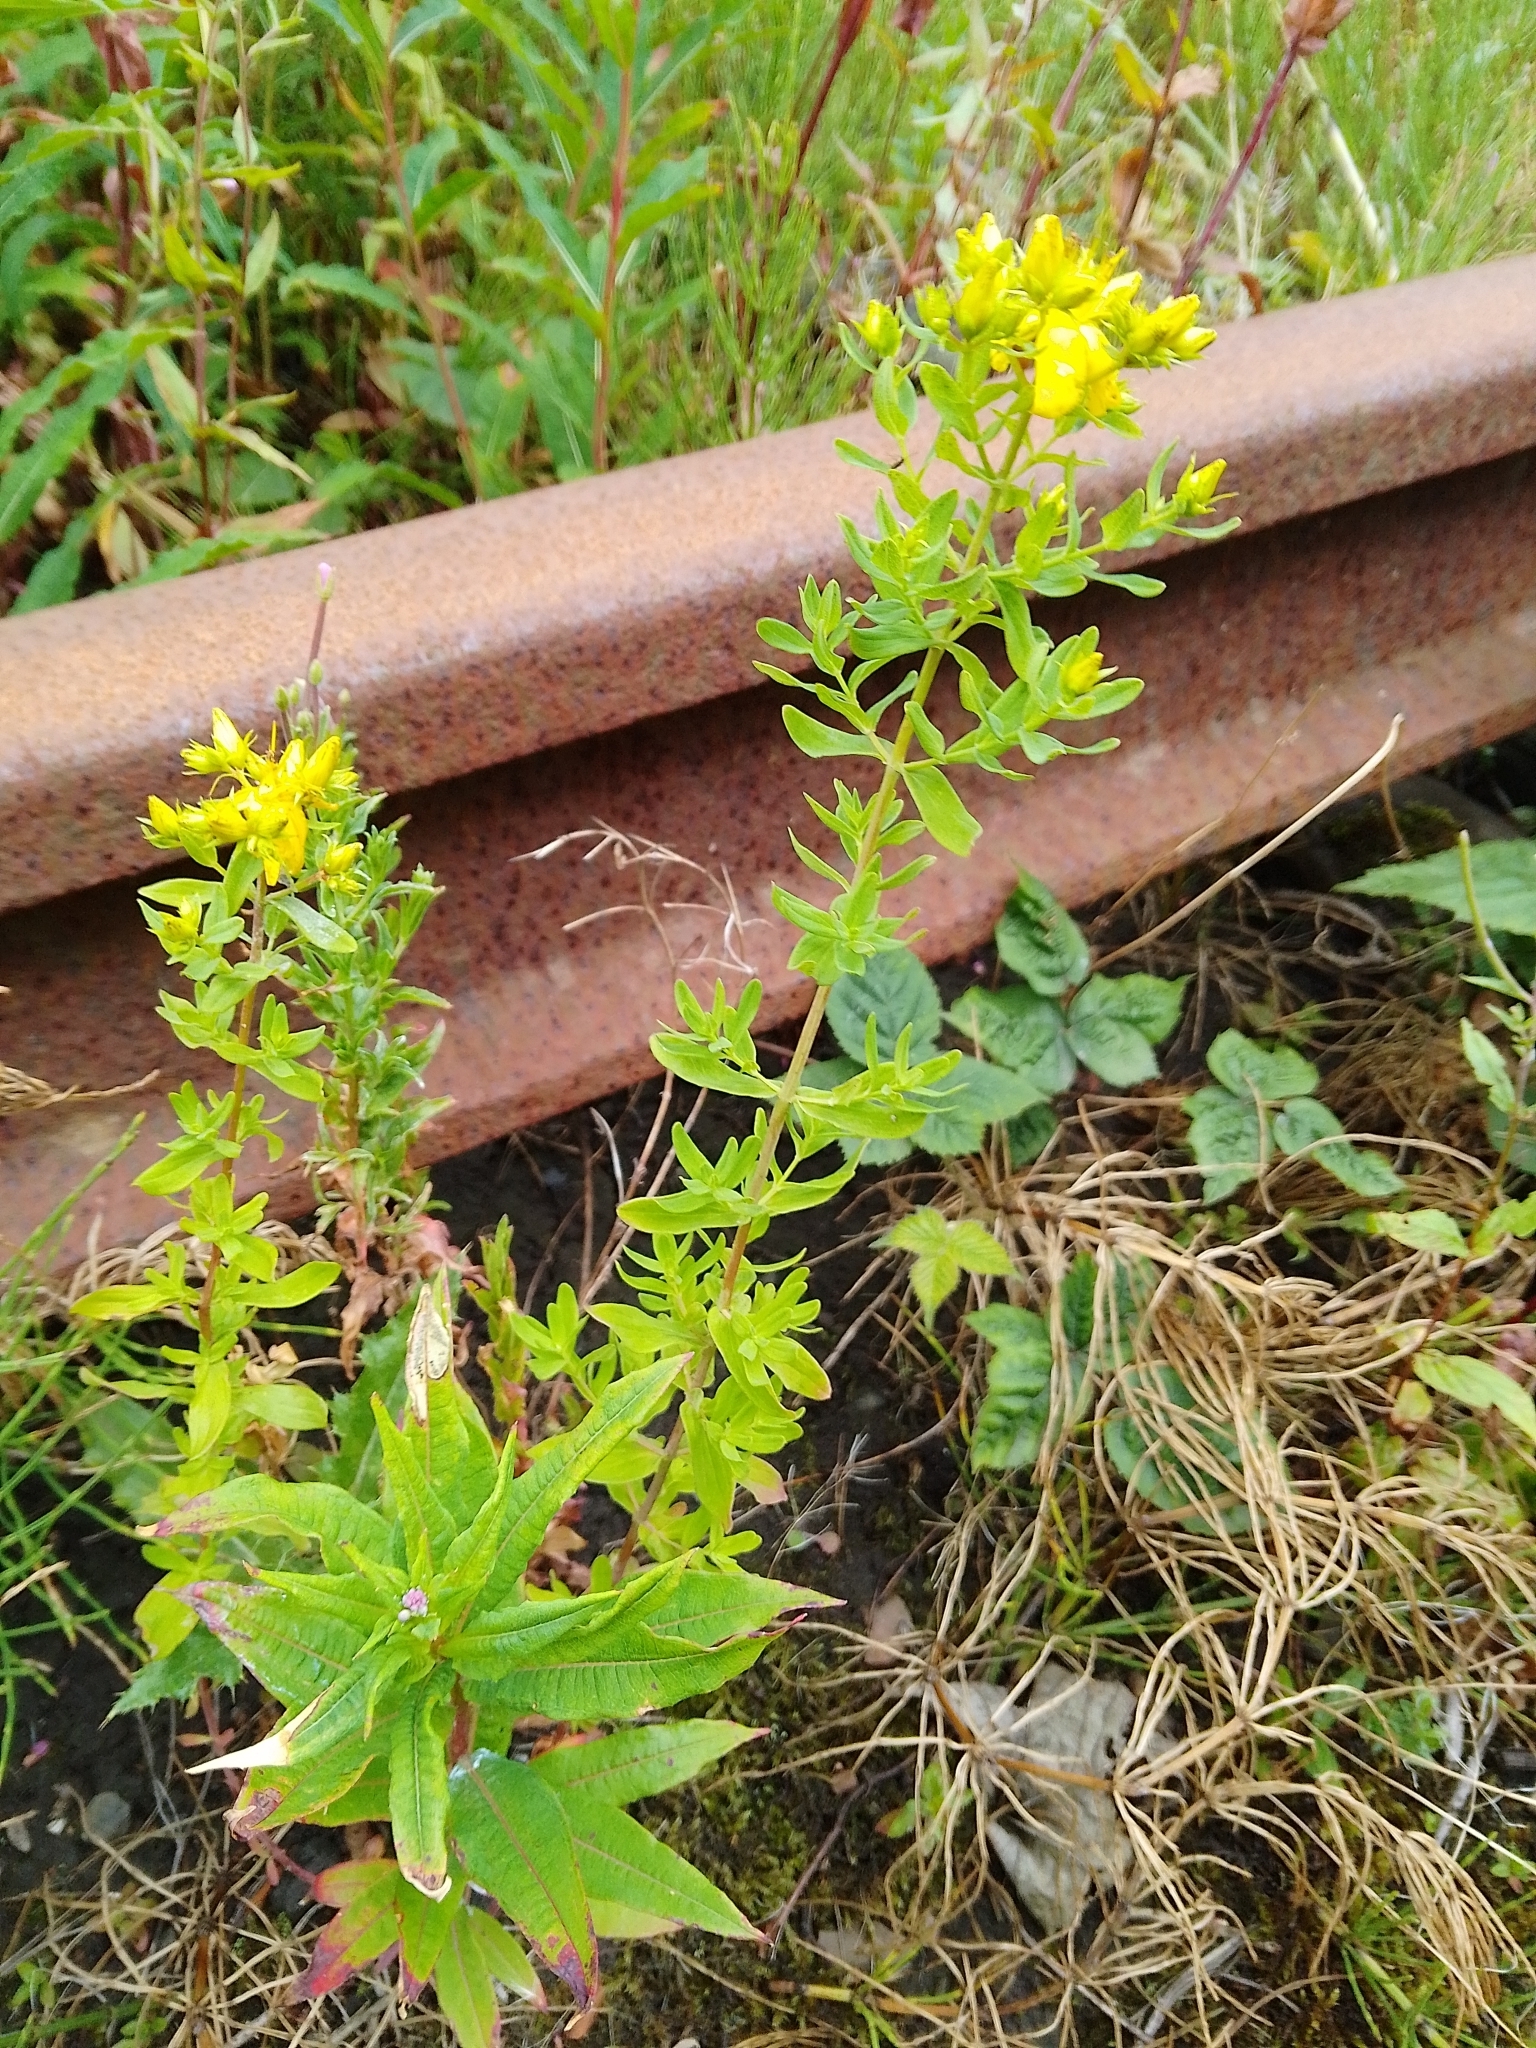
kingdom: Plantae
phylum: Tracheophyta
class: Magnoliopsida
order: Malpighiales
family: Hypericaceae
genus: Hypericum
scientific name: Hypericum perforatum
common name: Common st. johnswort
